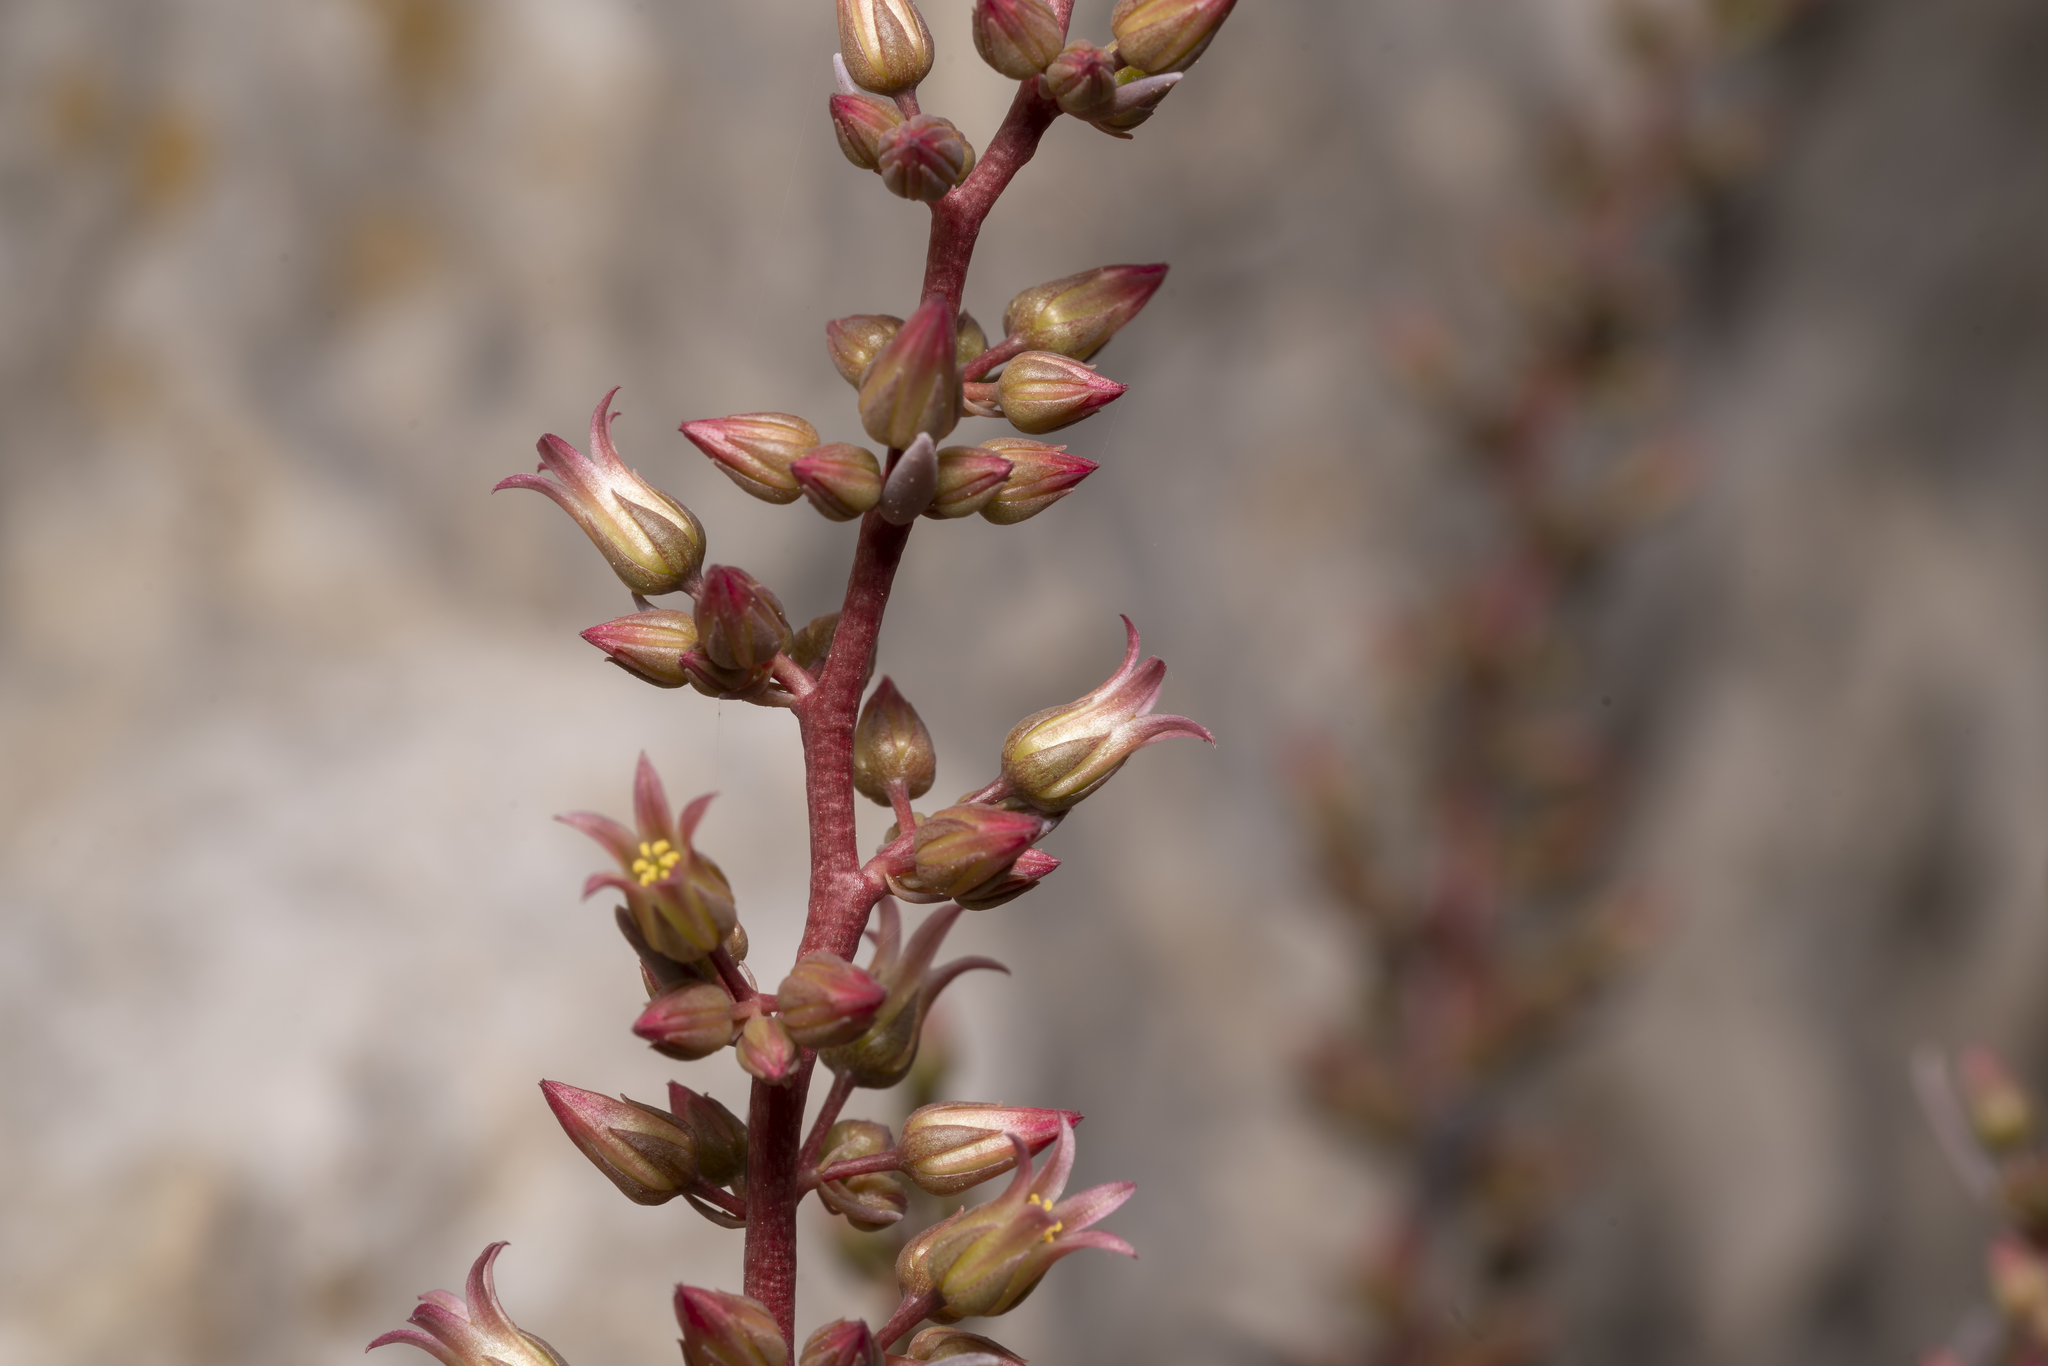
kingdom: Plantae
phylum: Tracheophyta
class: Magnoliopsida
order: Saxifragales
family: Crassulaceae
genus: Rosularia
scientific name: Rosularia serrata
